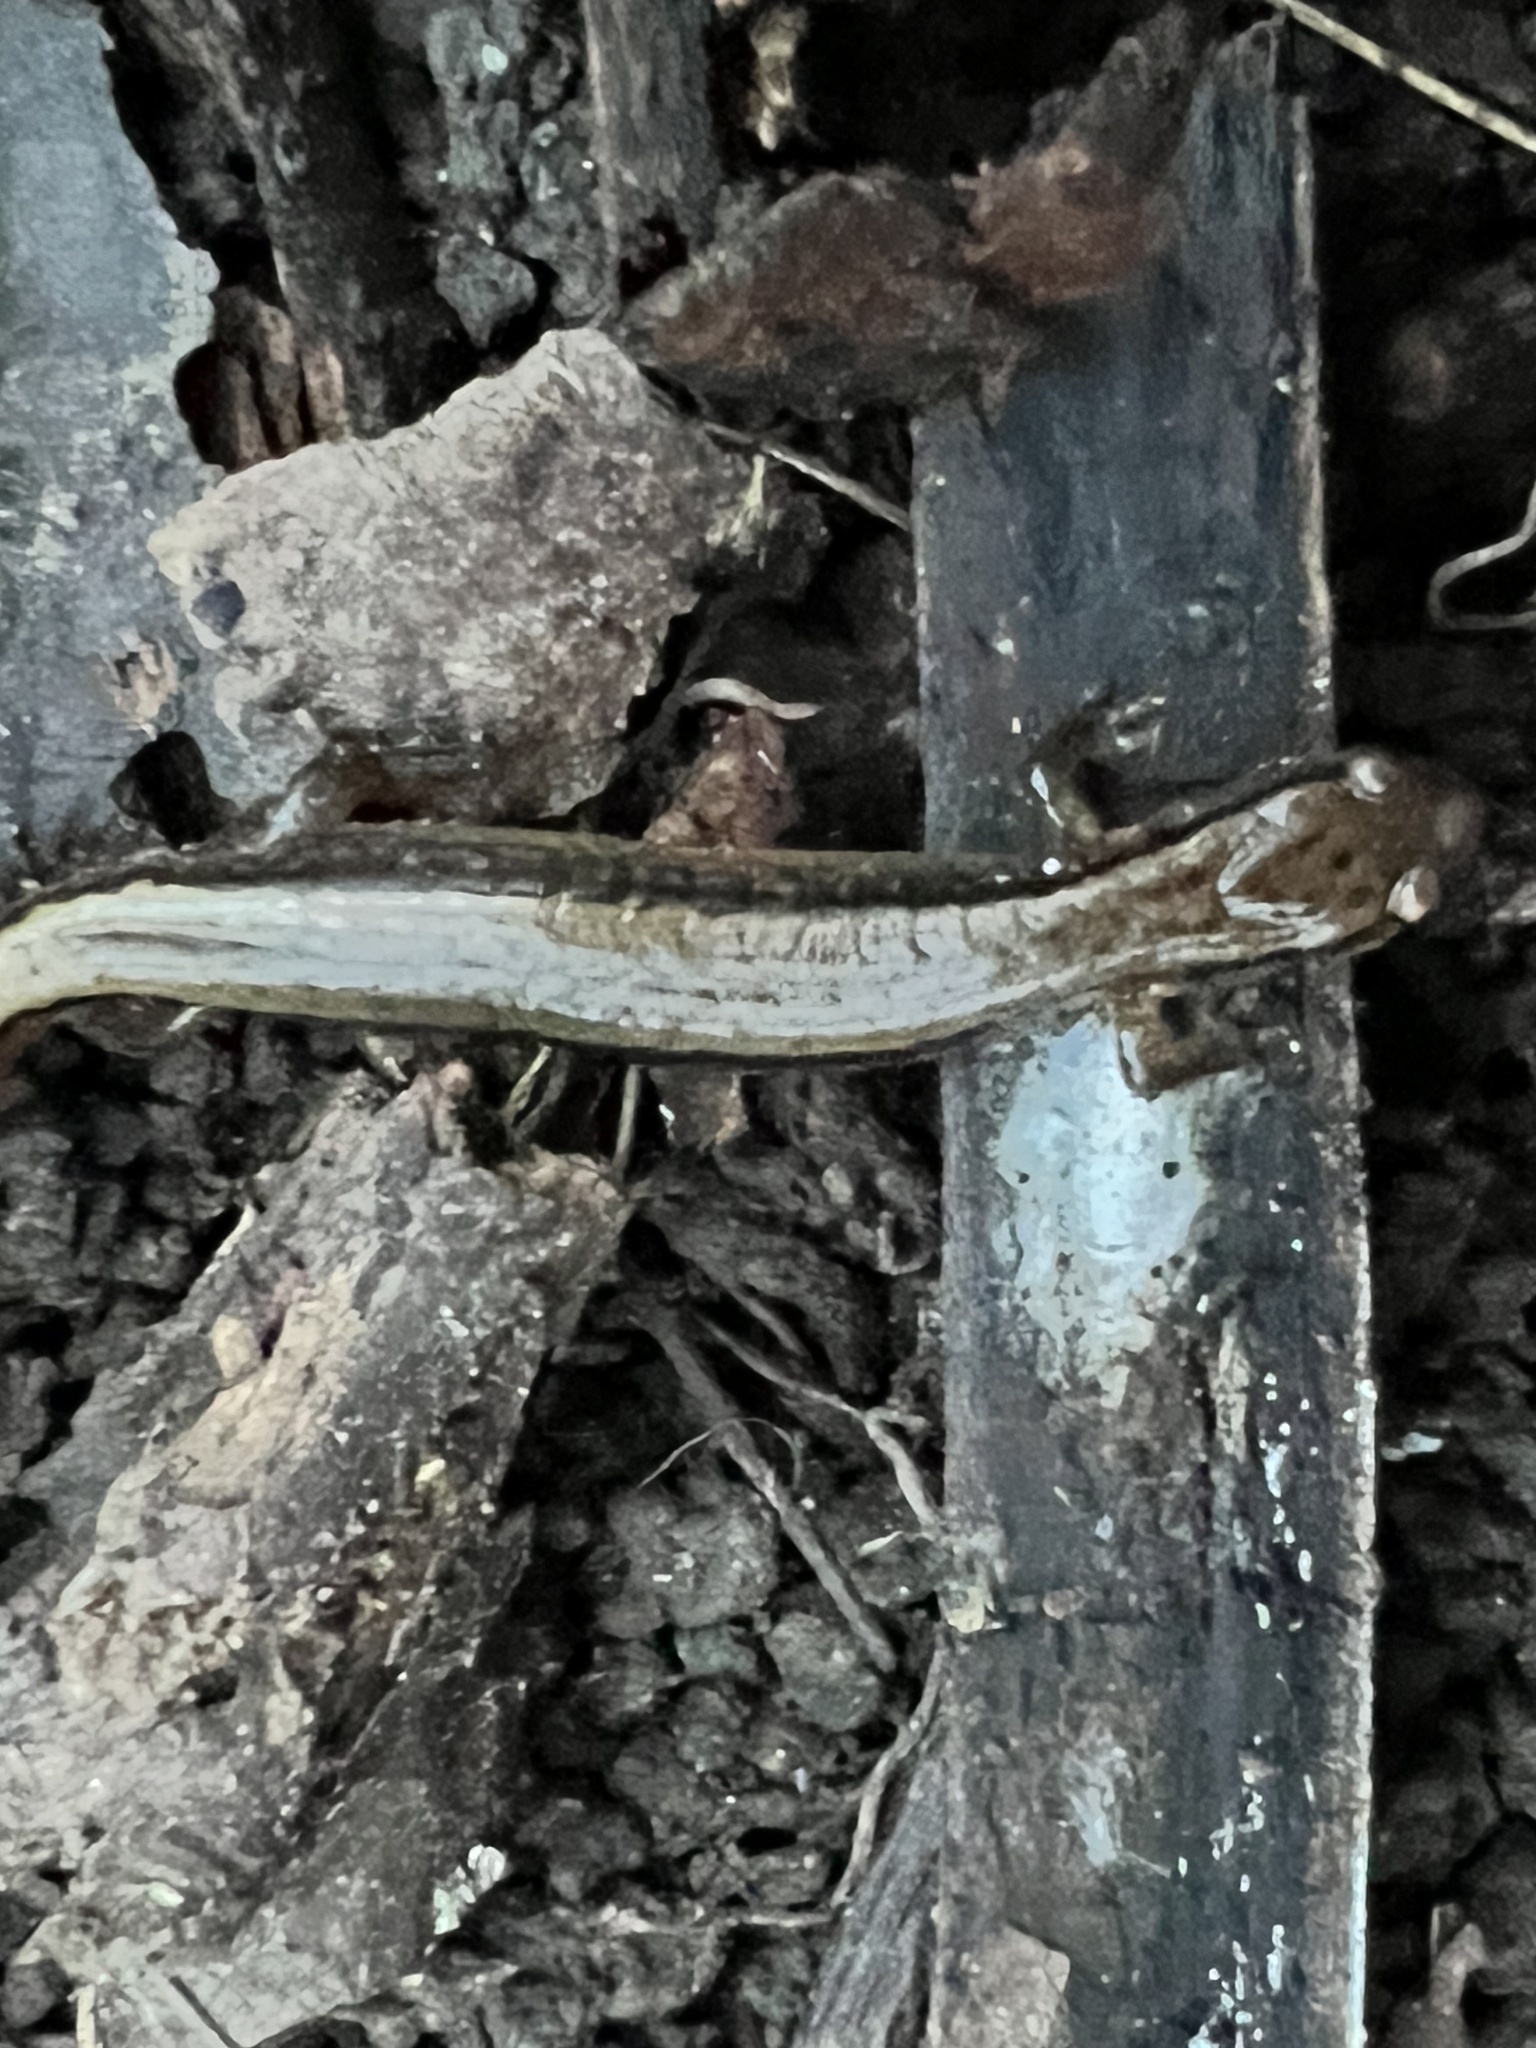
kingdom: Animalia
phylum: Chordata
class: Amphibia
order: Caudata
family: Plethodontidae
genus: Eurycea
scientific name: Eurycea bislineata
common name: Northern two-lined salamander
